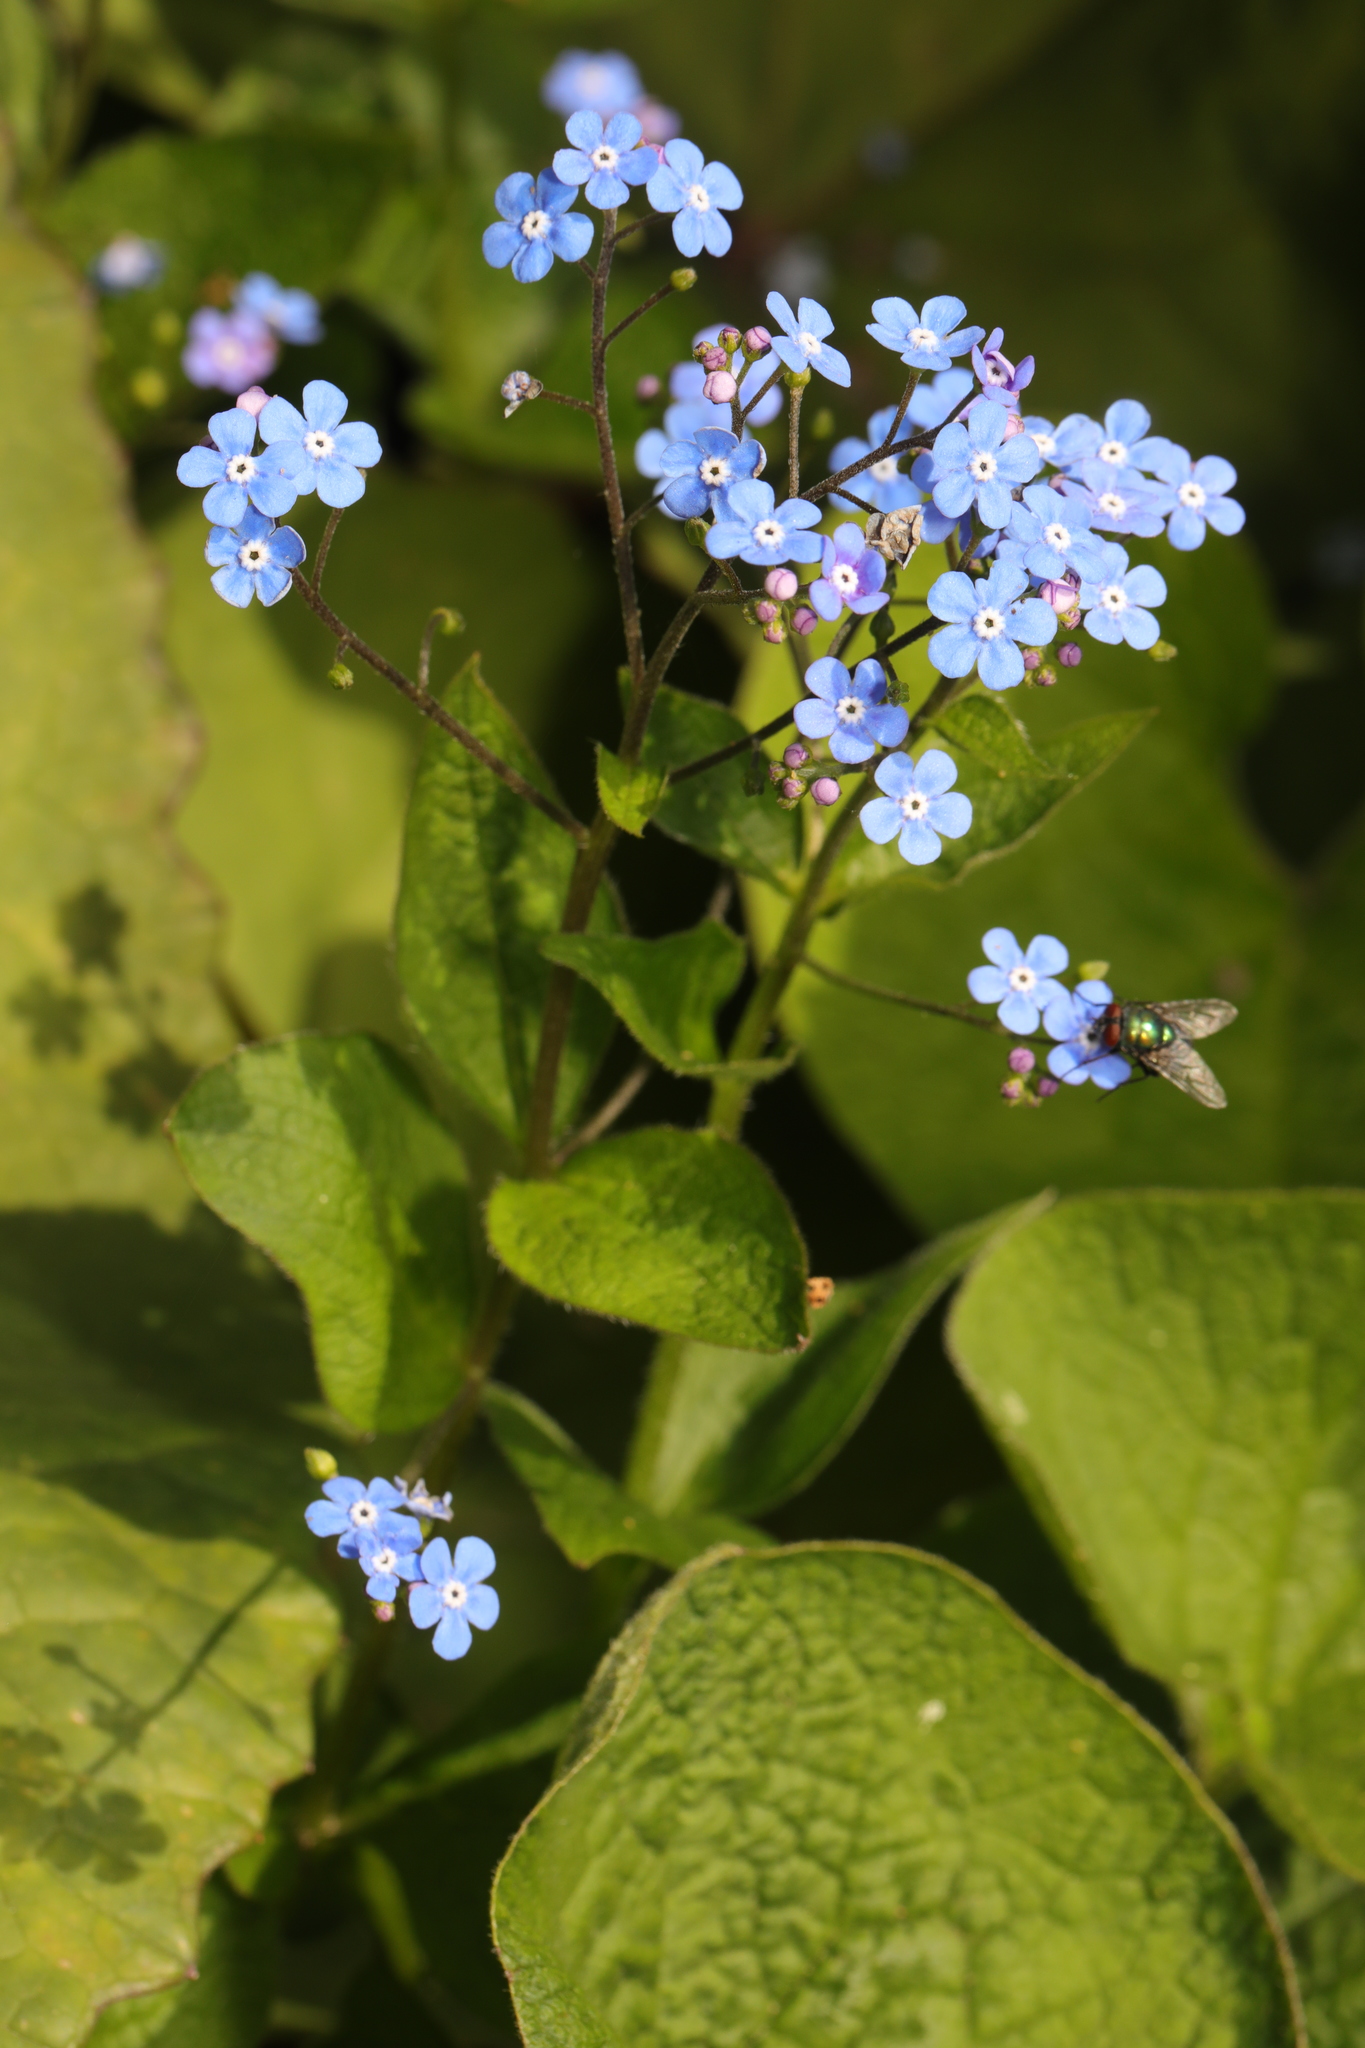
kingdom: Plantae
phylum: Tracheophyta
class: Magnoliopsida
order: Boraginales
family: Boraginaceae
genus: Brunnera
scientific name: Brunnera macrophylla
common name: Great forget-me-not
